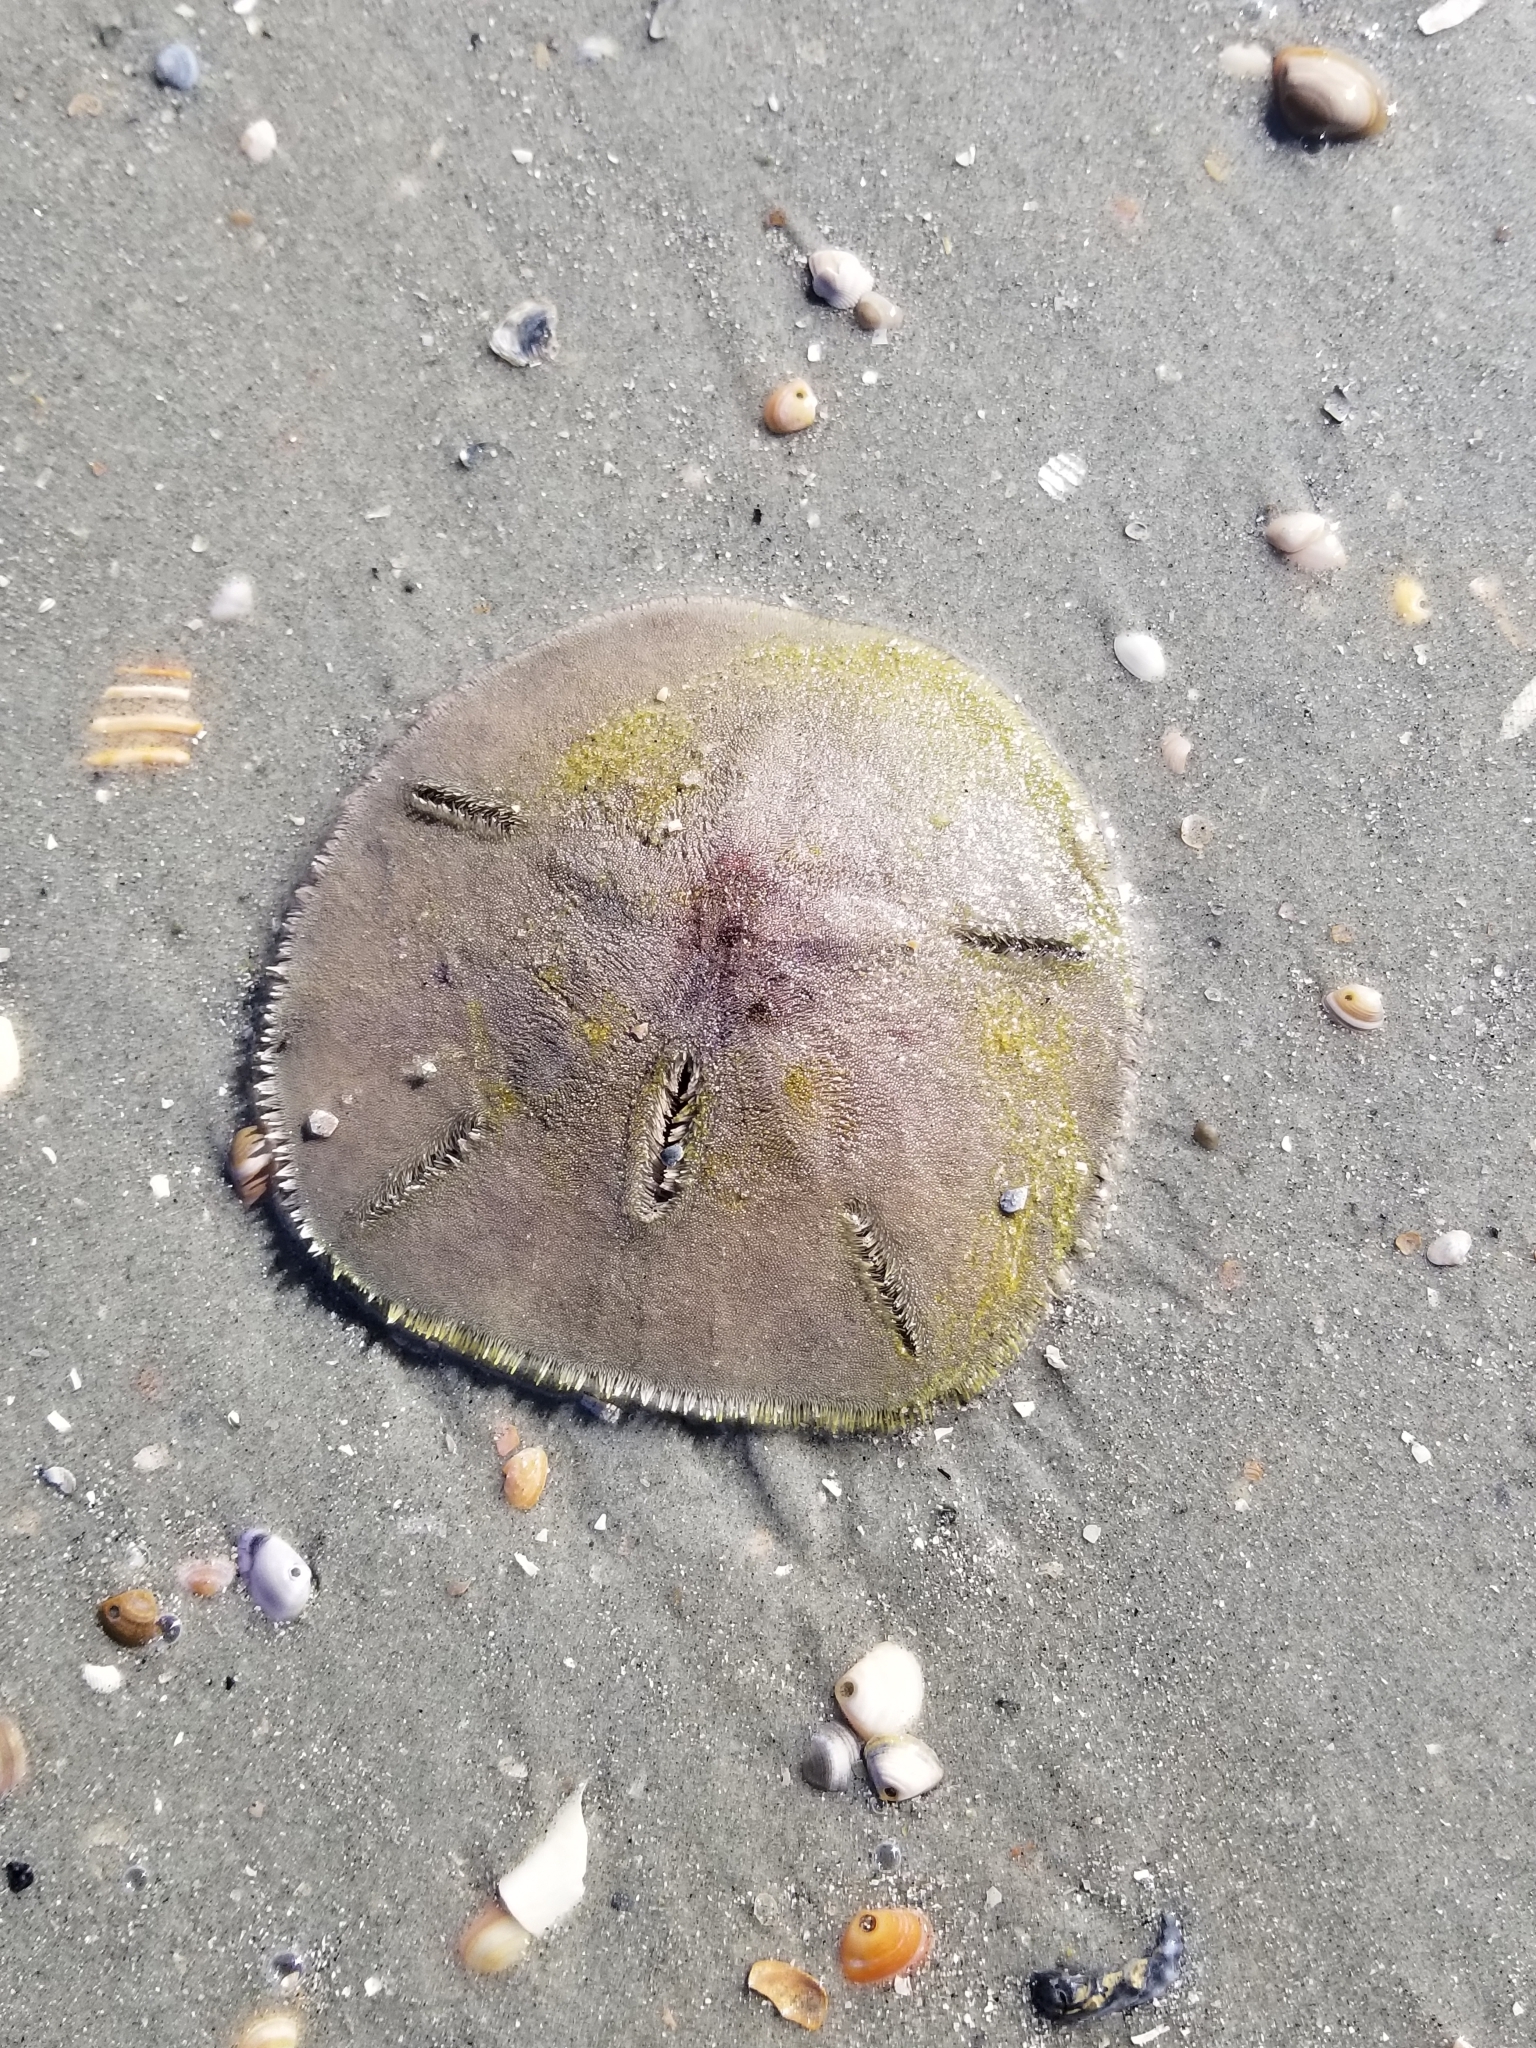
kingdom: Animalia
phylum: Echinodermata
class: Echinoidea
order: Echinolampadacea
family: Mellitidae
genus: Mellita
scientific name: Mellita isometra
